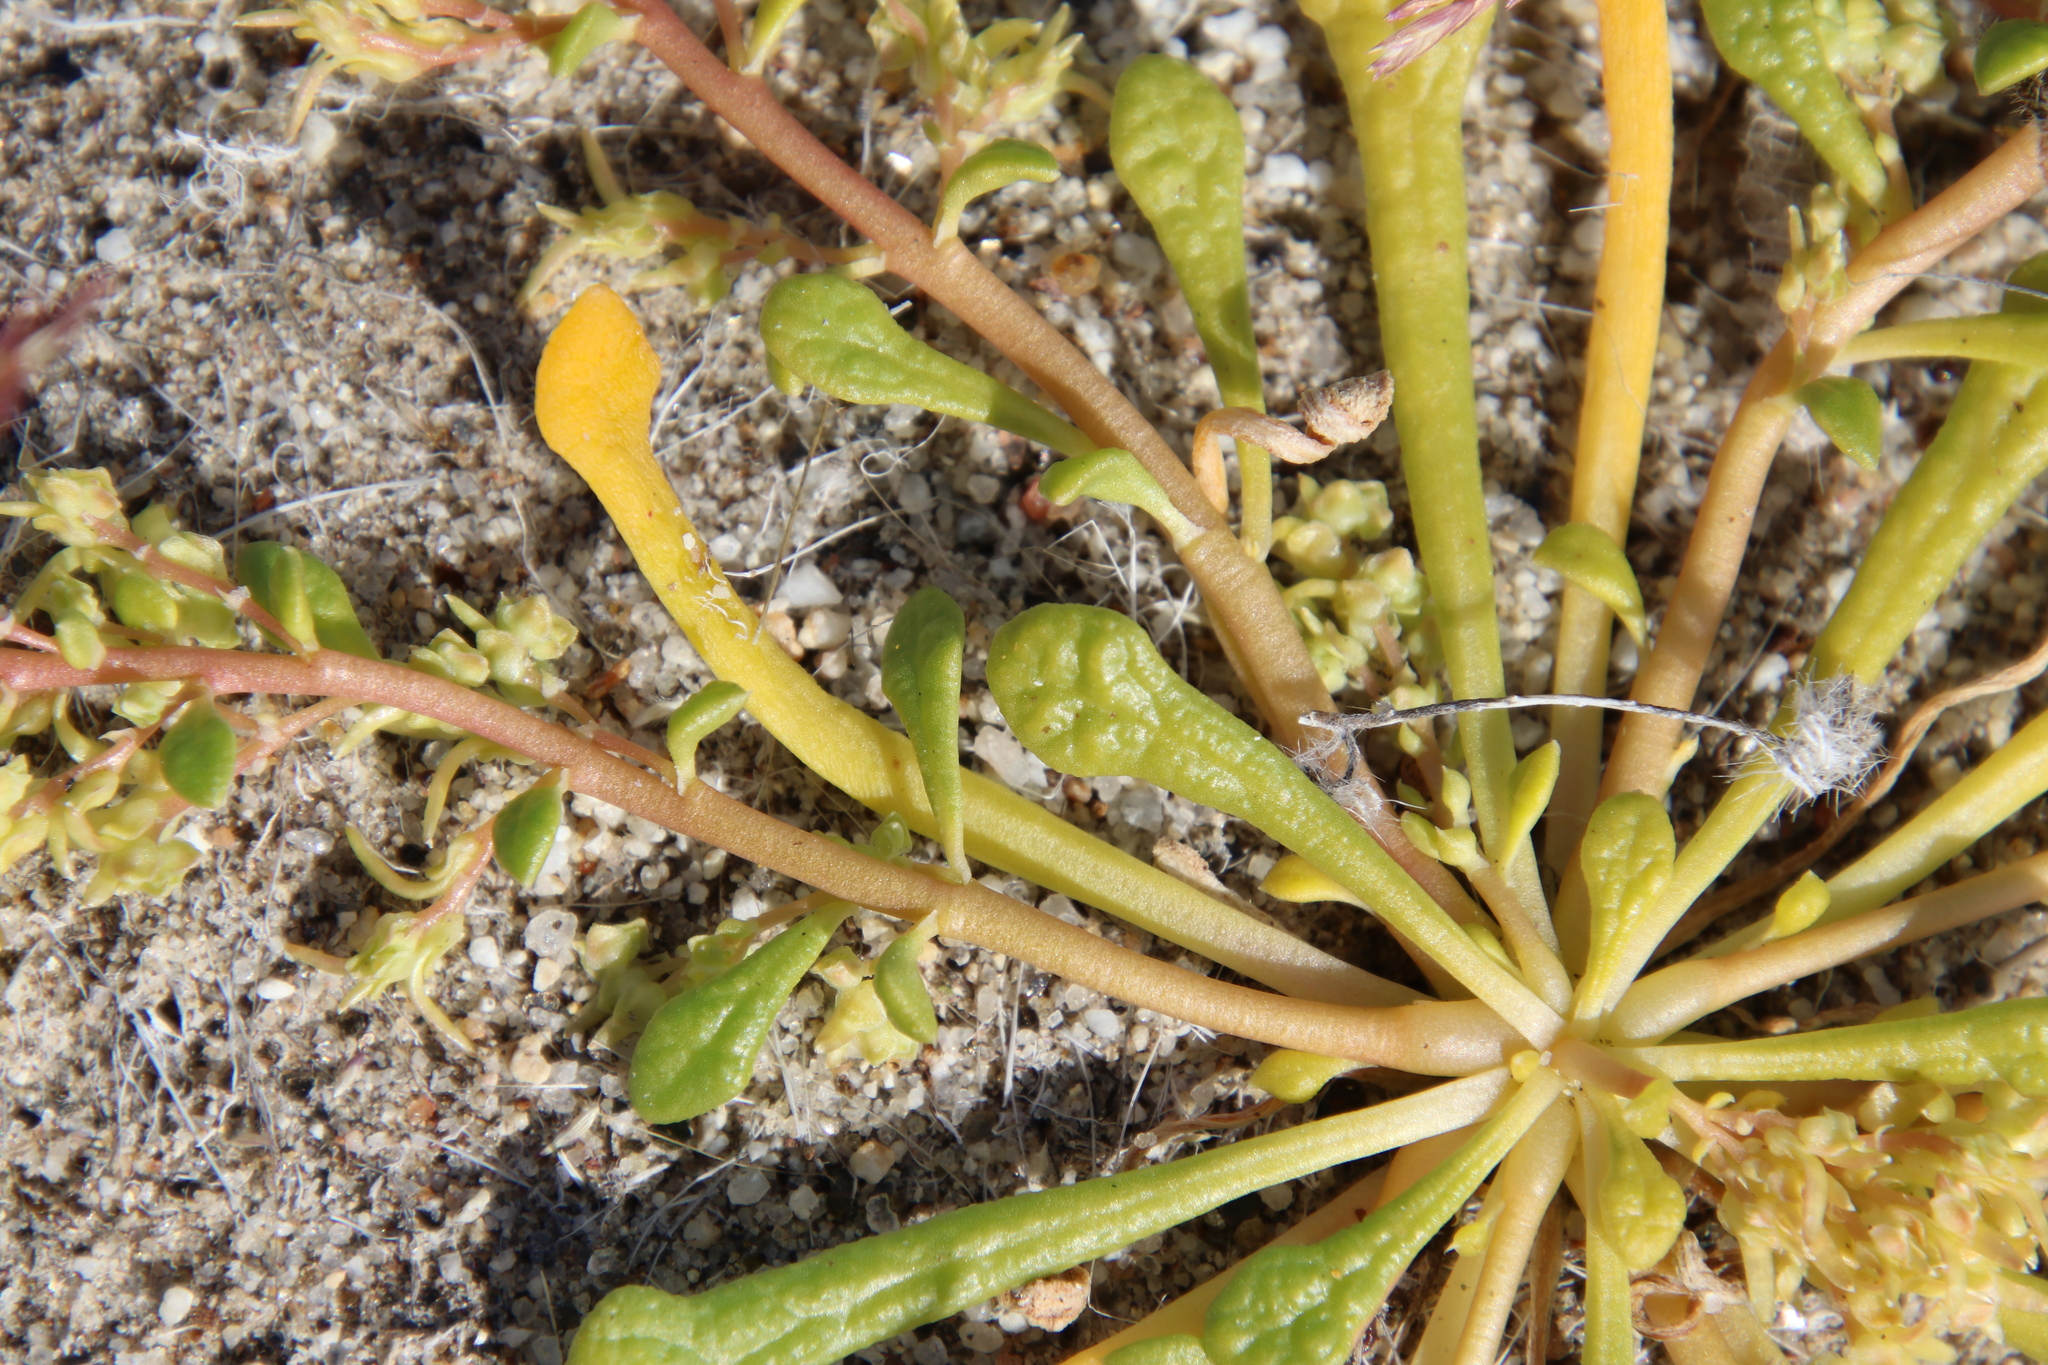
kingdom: Plantae
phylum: Tracheophyta
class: Magnoliopsida
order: Caryophyllales
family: Montiaceae
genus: Calyptridium
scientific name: Calyptridium monandrum
